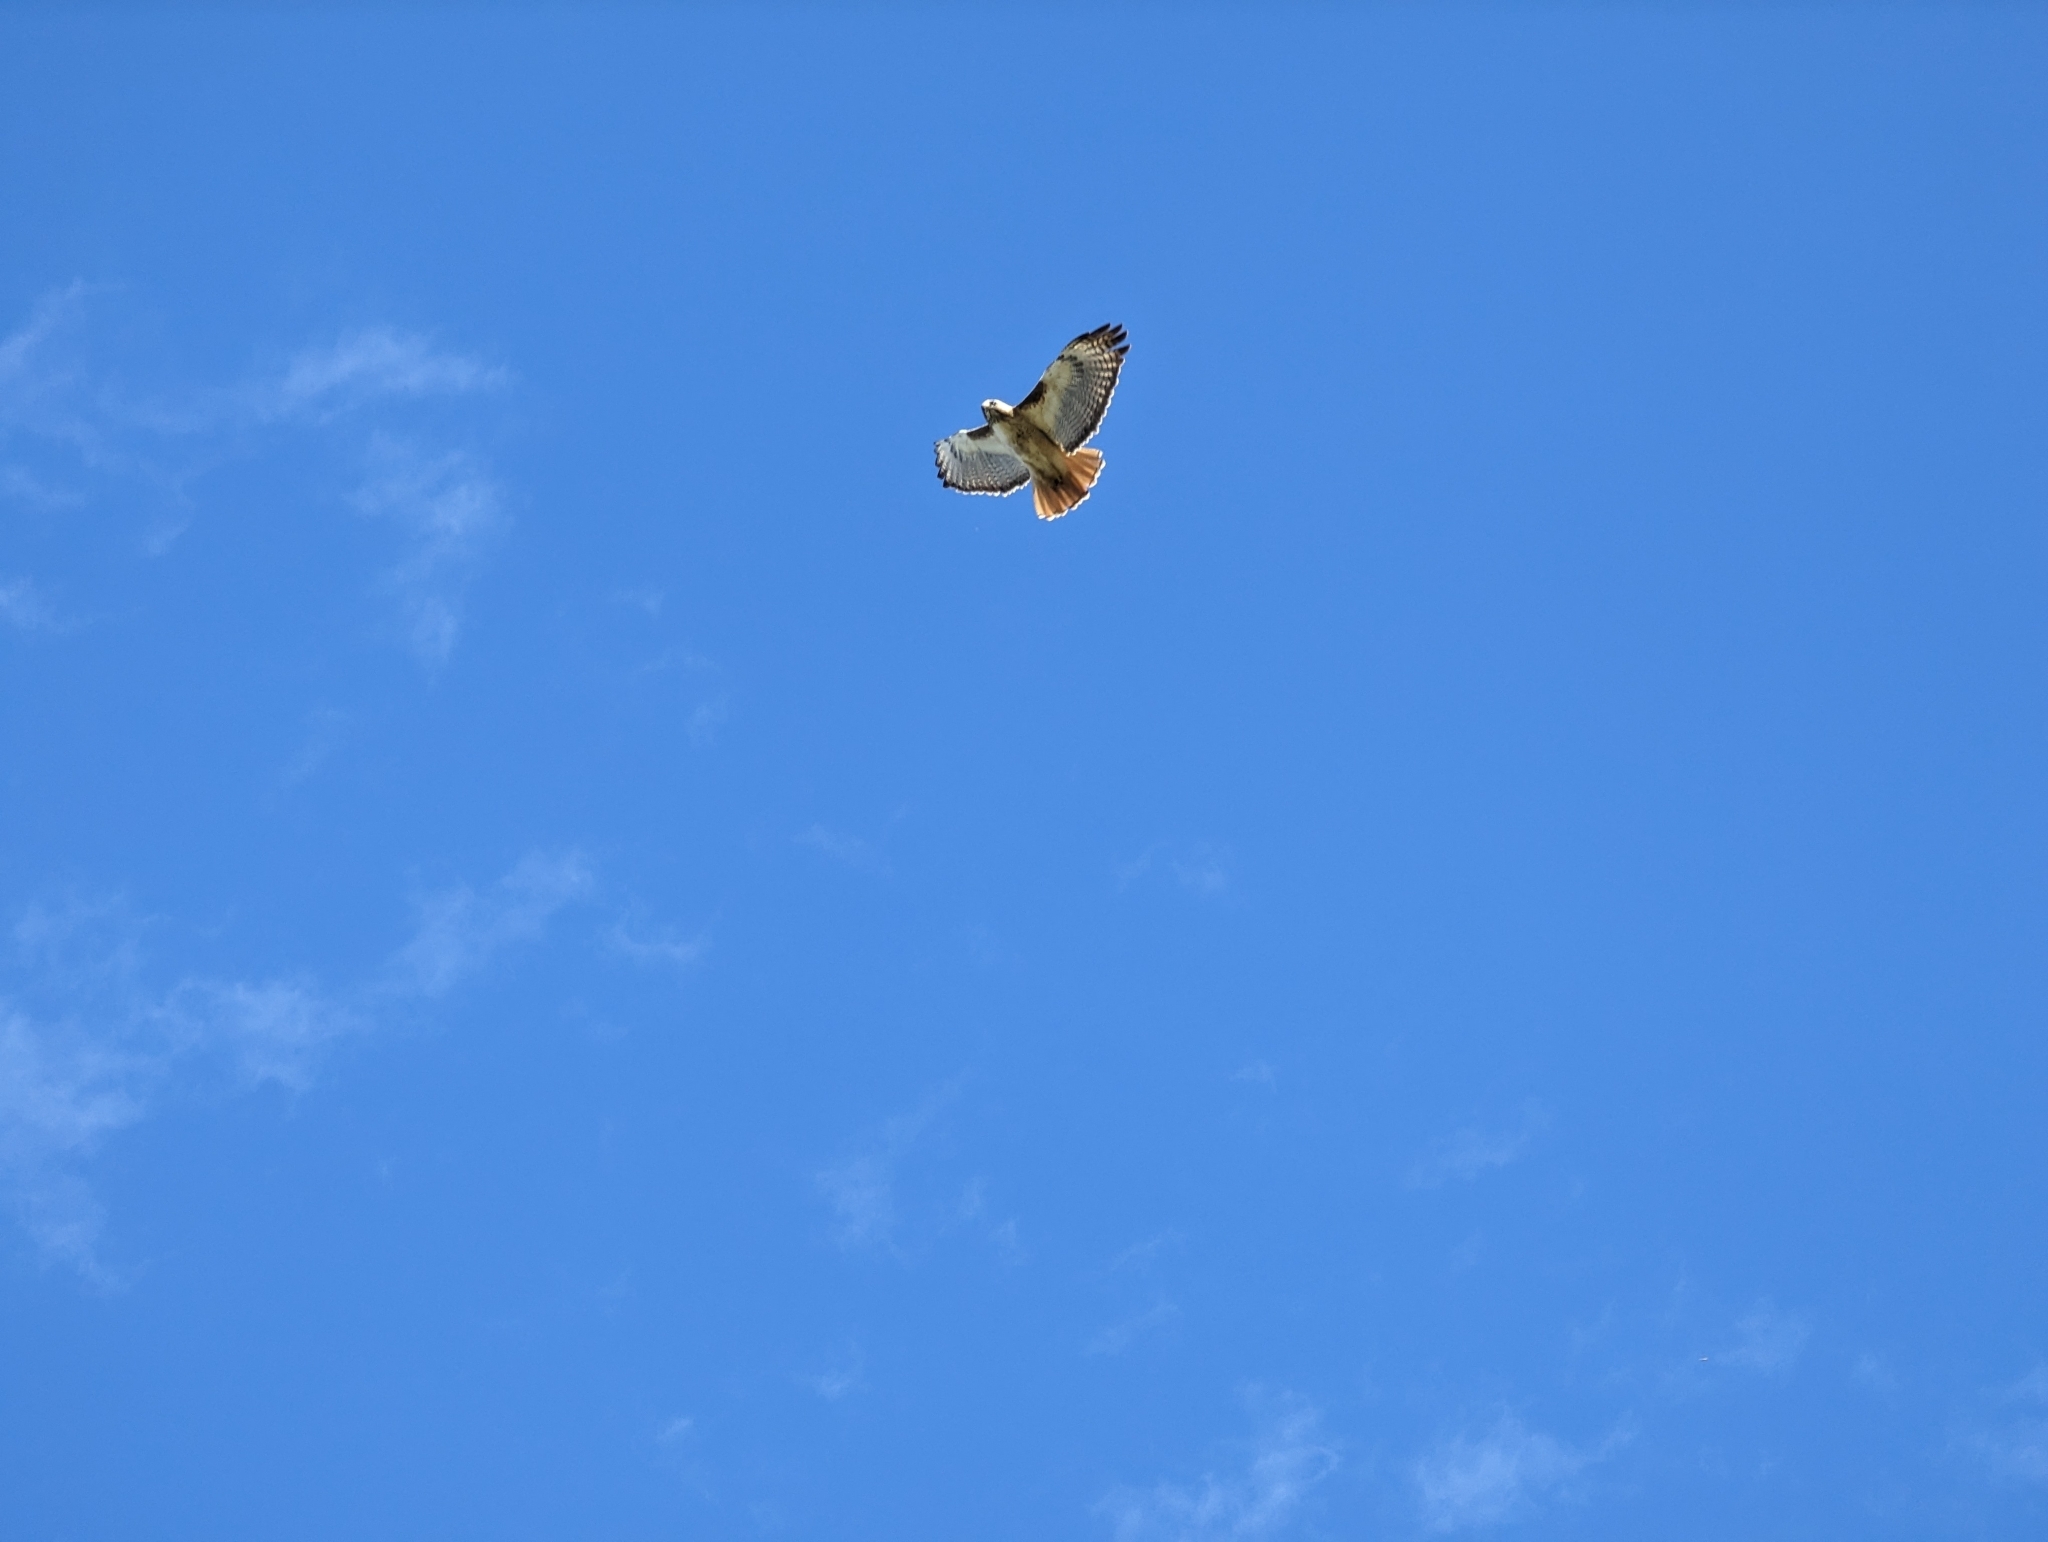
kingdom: Animalia
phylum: Chordata
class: Aves
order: Accipitriformes
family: Accipitridae
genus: Buteo
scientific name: Buteo jamaicensis
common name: Red-tailed hawk
